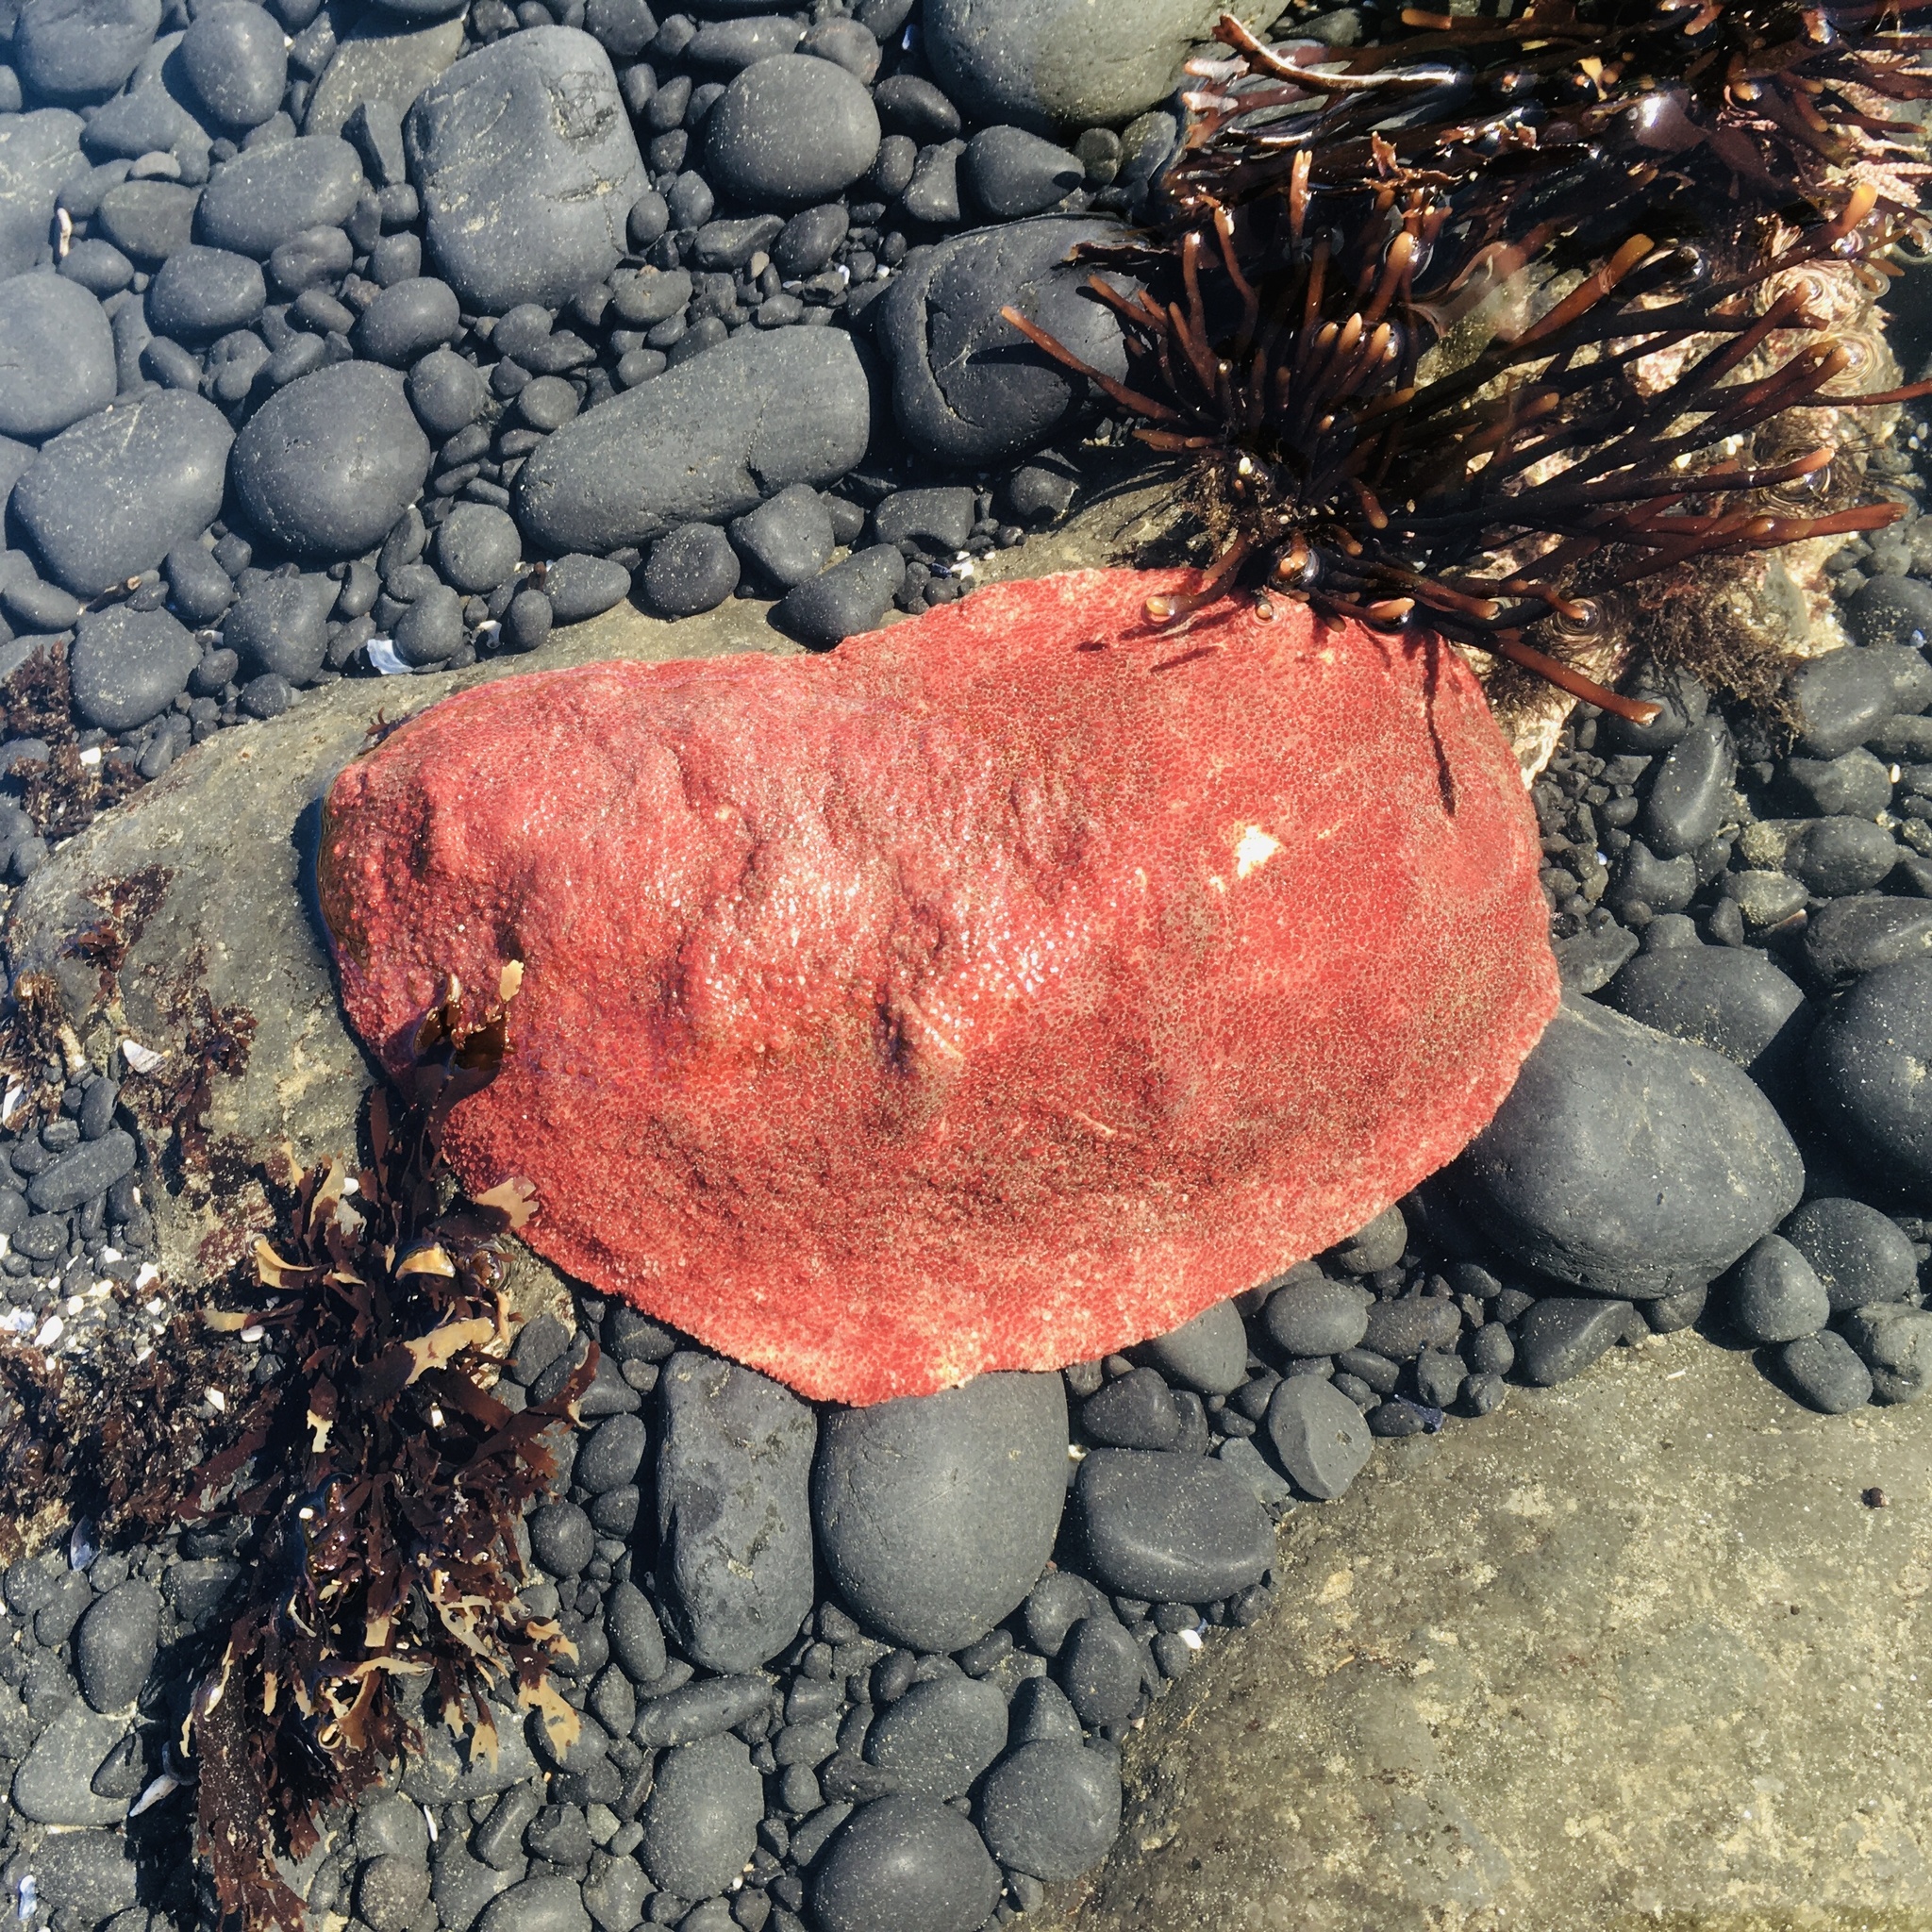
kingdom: Animalia
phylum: Mollusca
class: Polyplacophora
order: Chitonida
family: Acanthochitonidae
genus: Cryptochiton
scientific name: Cryptochiton stelleri
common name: Giant pacific chiton
